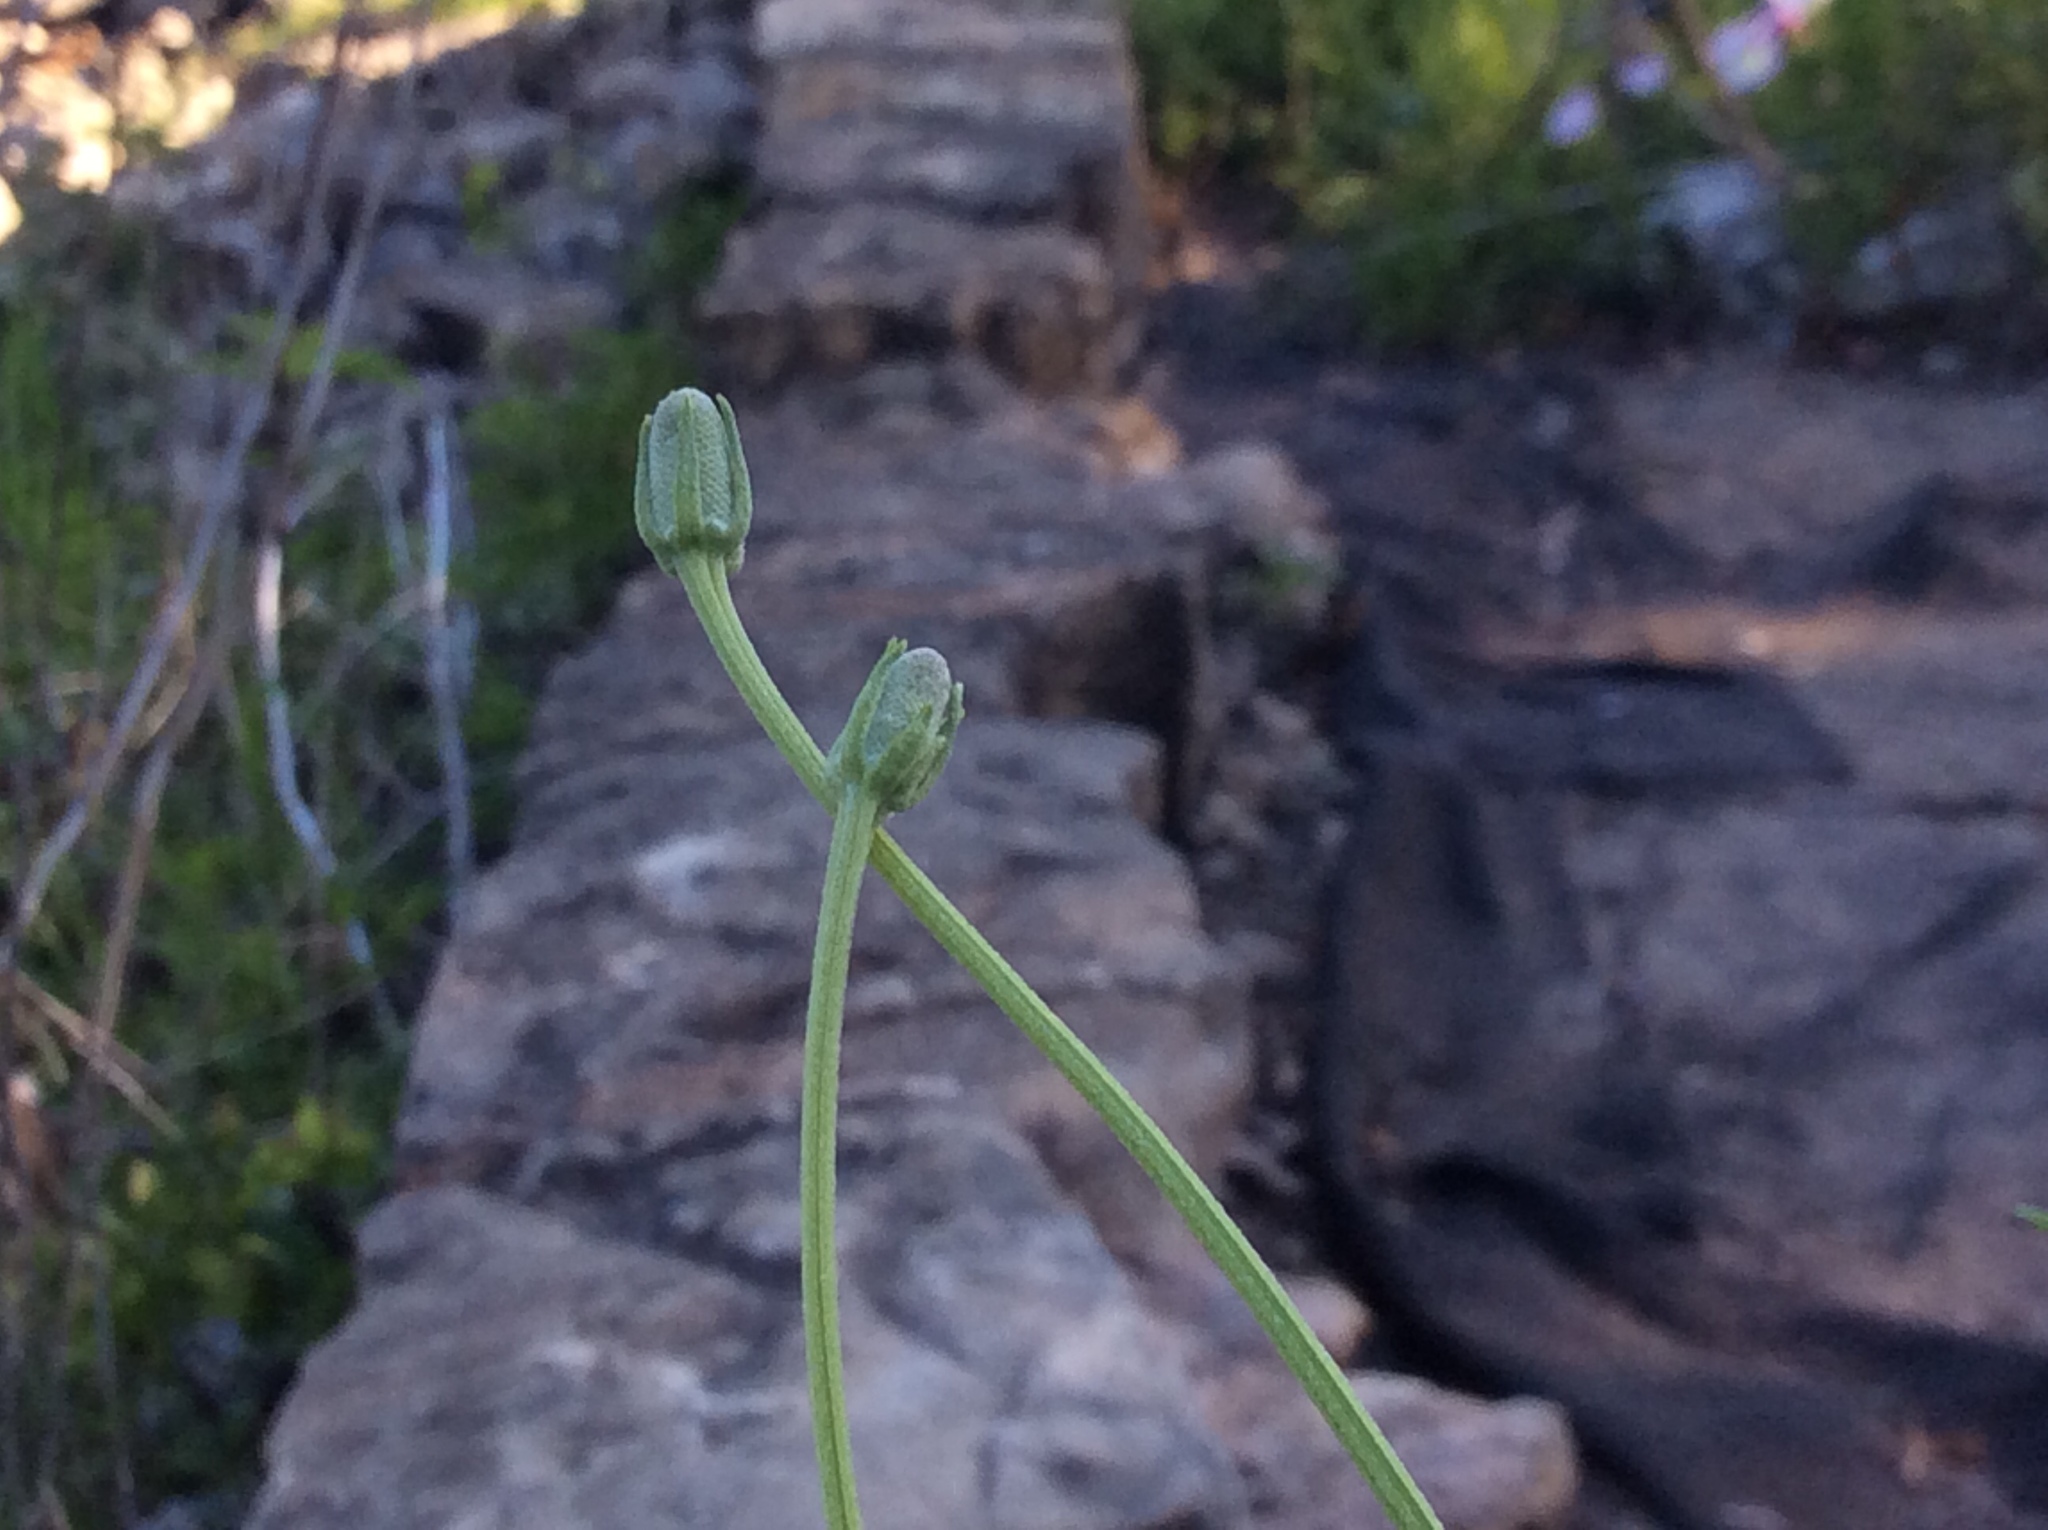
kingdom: Plantae
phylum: Tracheophyta
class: Magnoliopsida
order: Asterales
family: Asteraceae
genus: Ratibida
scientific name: Ratibida columnifera
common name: Prairie coneflower
